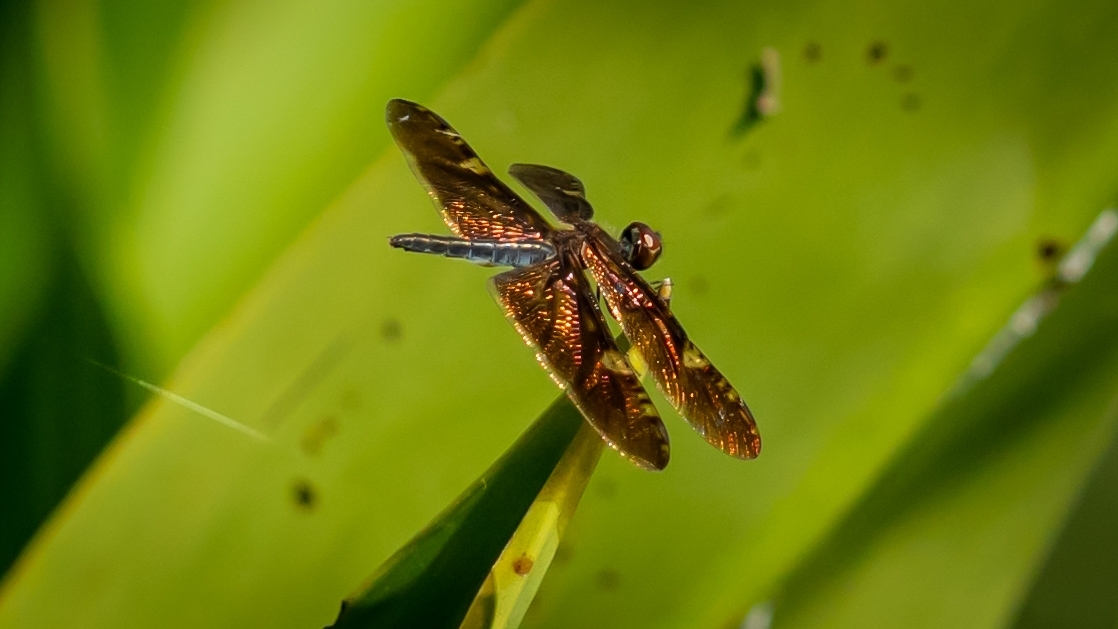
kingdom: Animalia
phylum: Arthropoda
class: Insecta
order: Odonata
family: Libellulidae
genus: Rhyothemis
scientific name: Rhyothemis obsolescens
